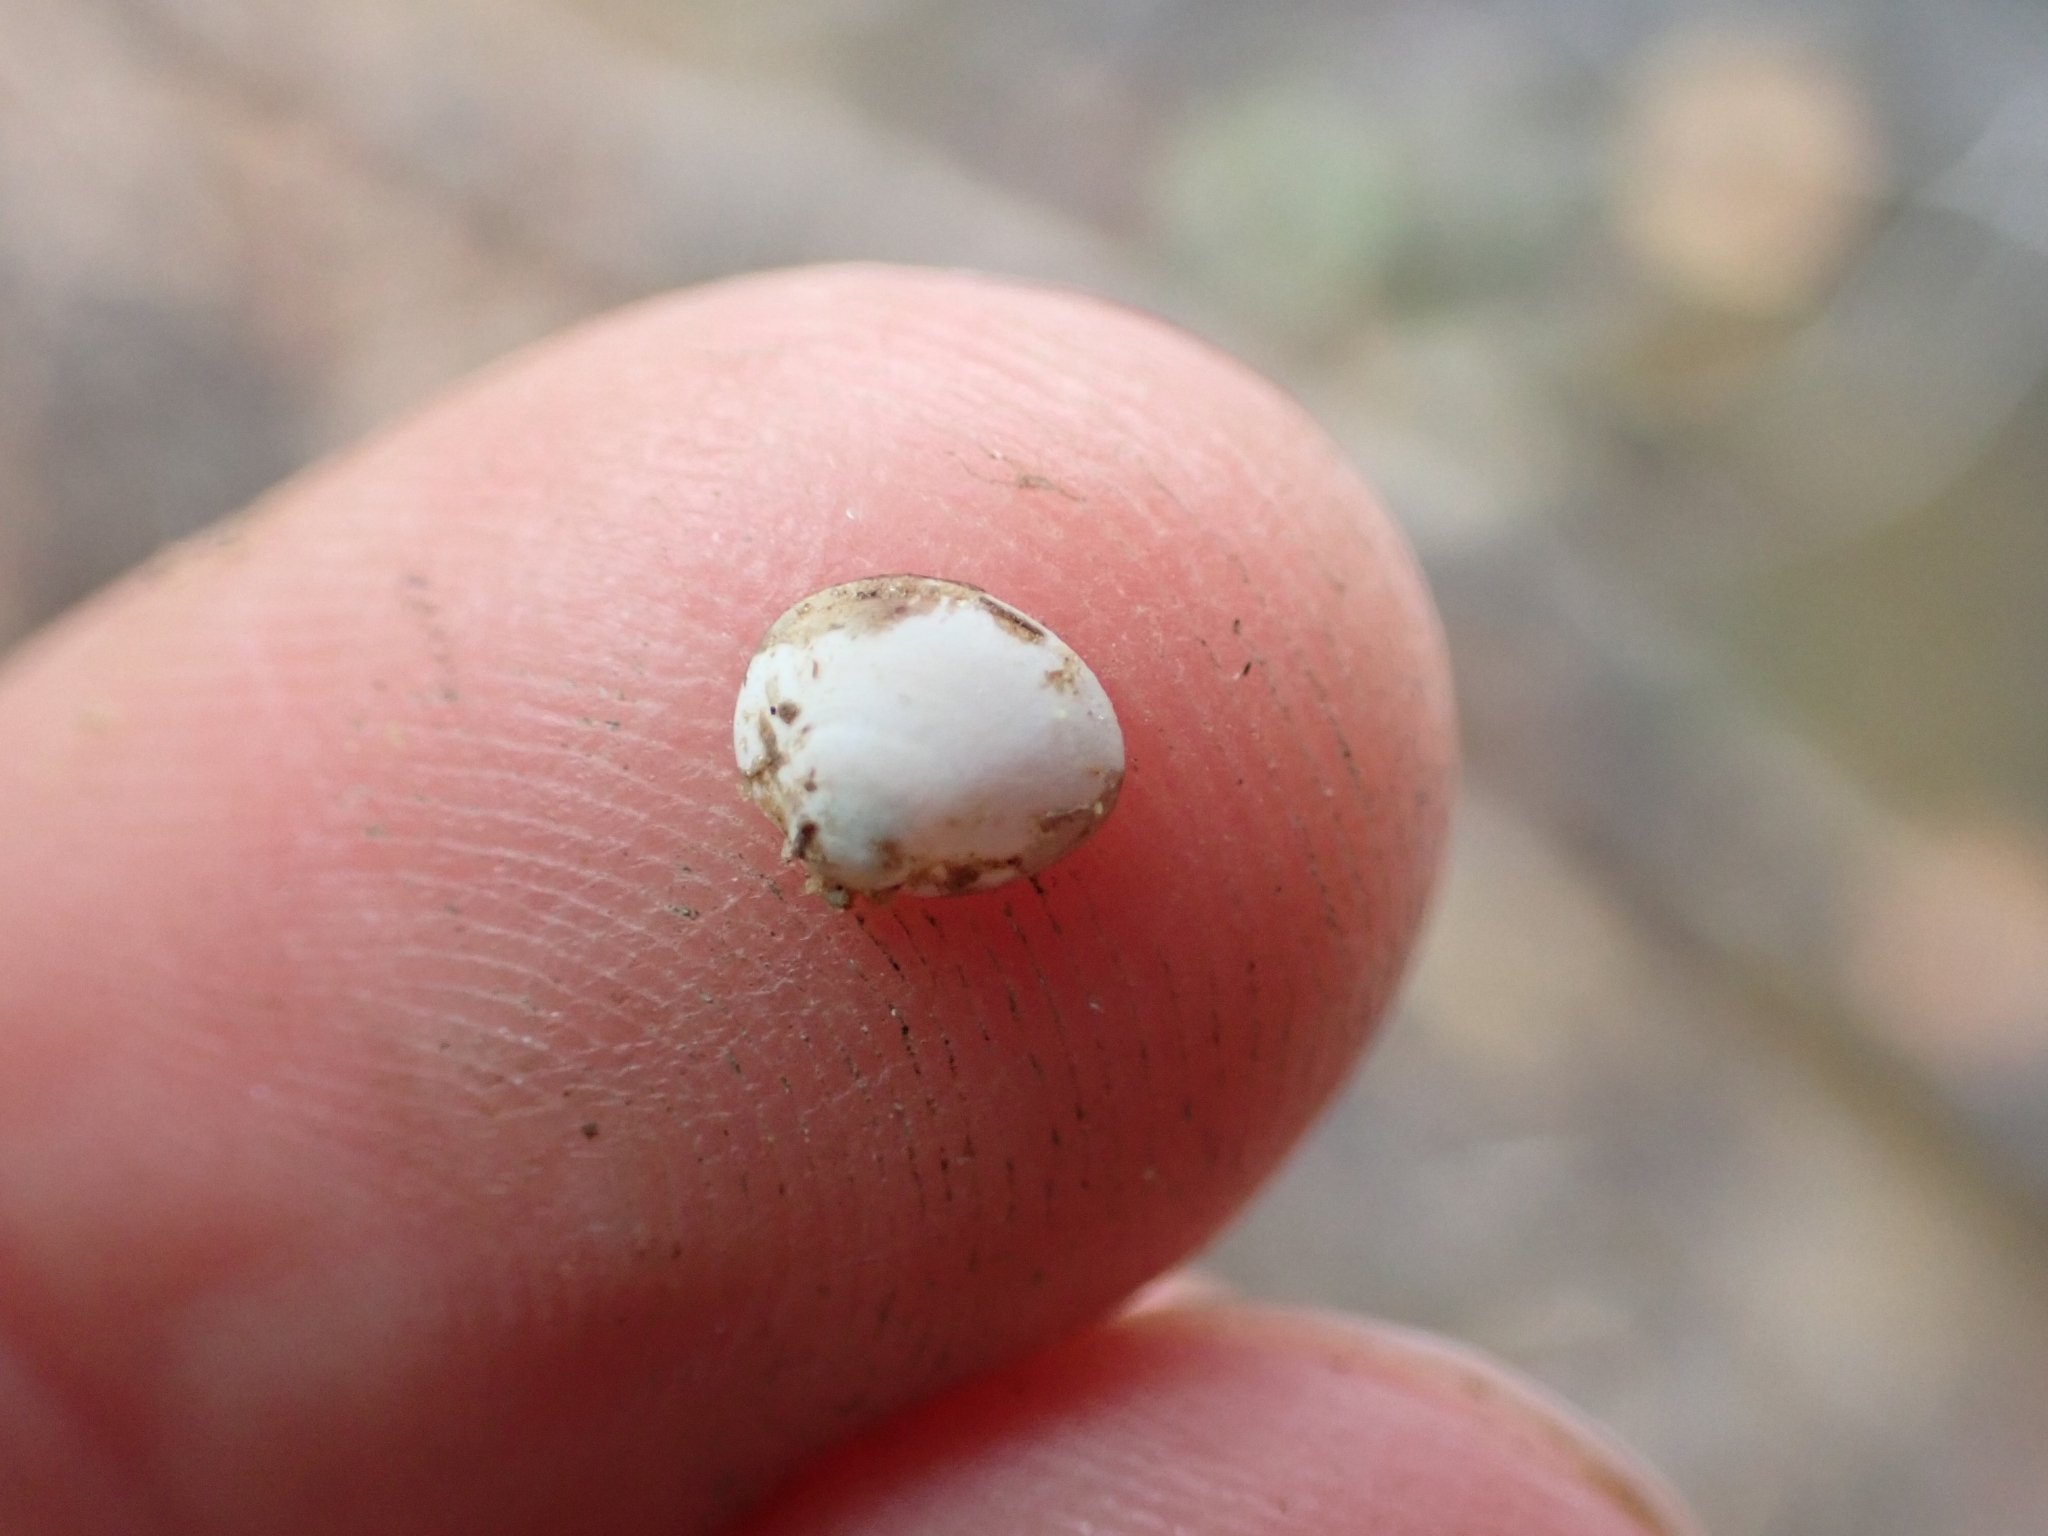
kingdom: Animalia
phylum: Mollusca
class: Bivalvia
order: Sphaeriida
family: Sphaeriidae
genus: Musculium
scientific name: Musculium lacustre
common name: Lake fingernailclam
